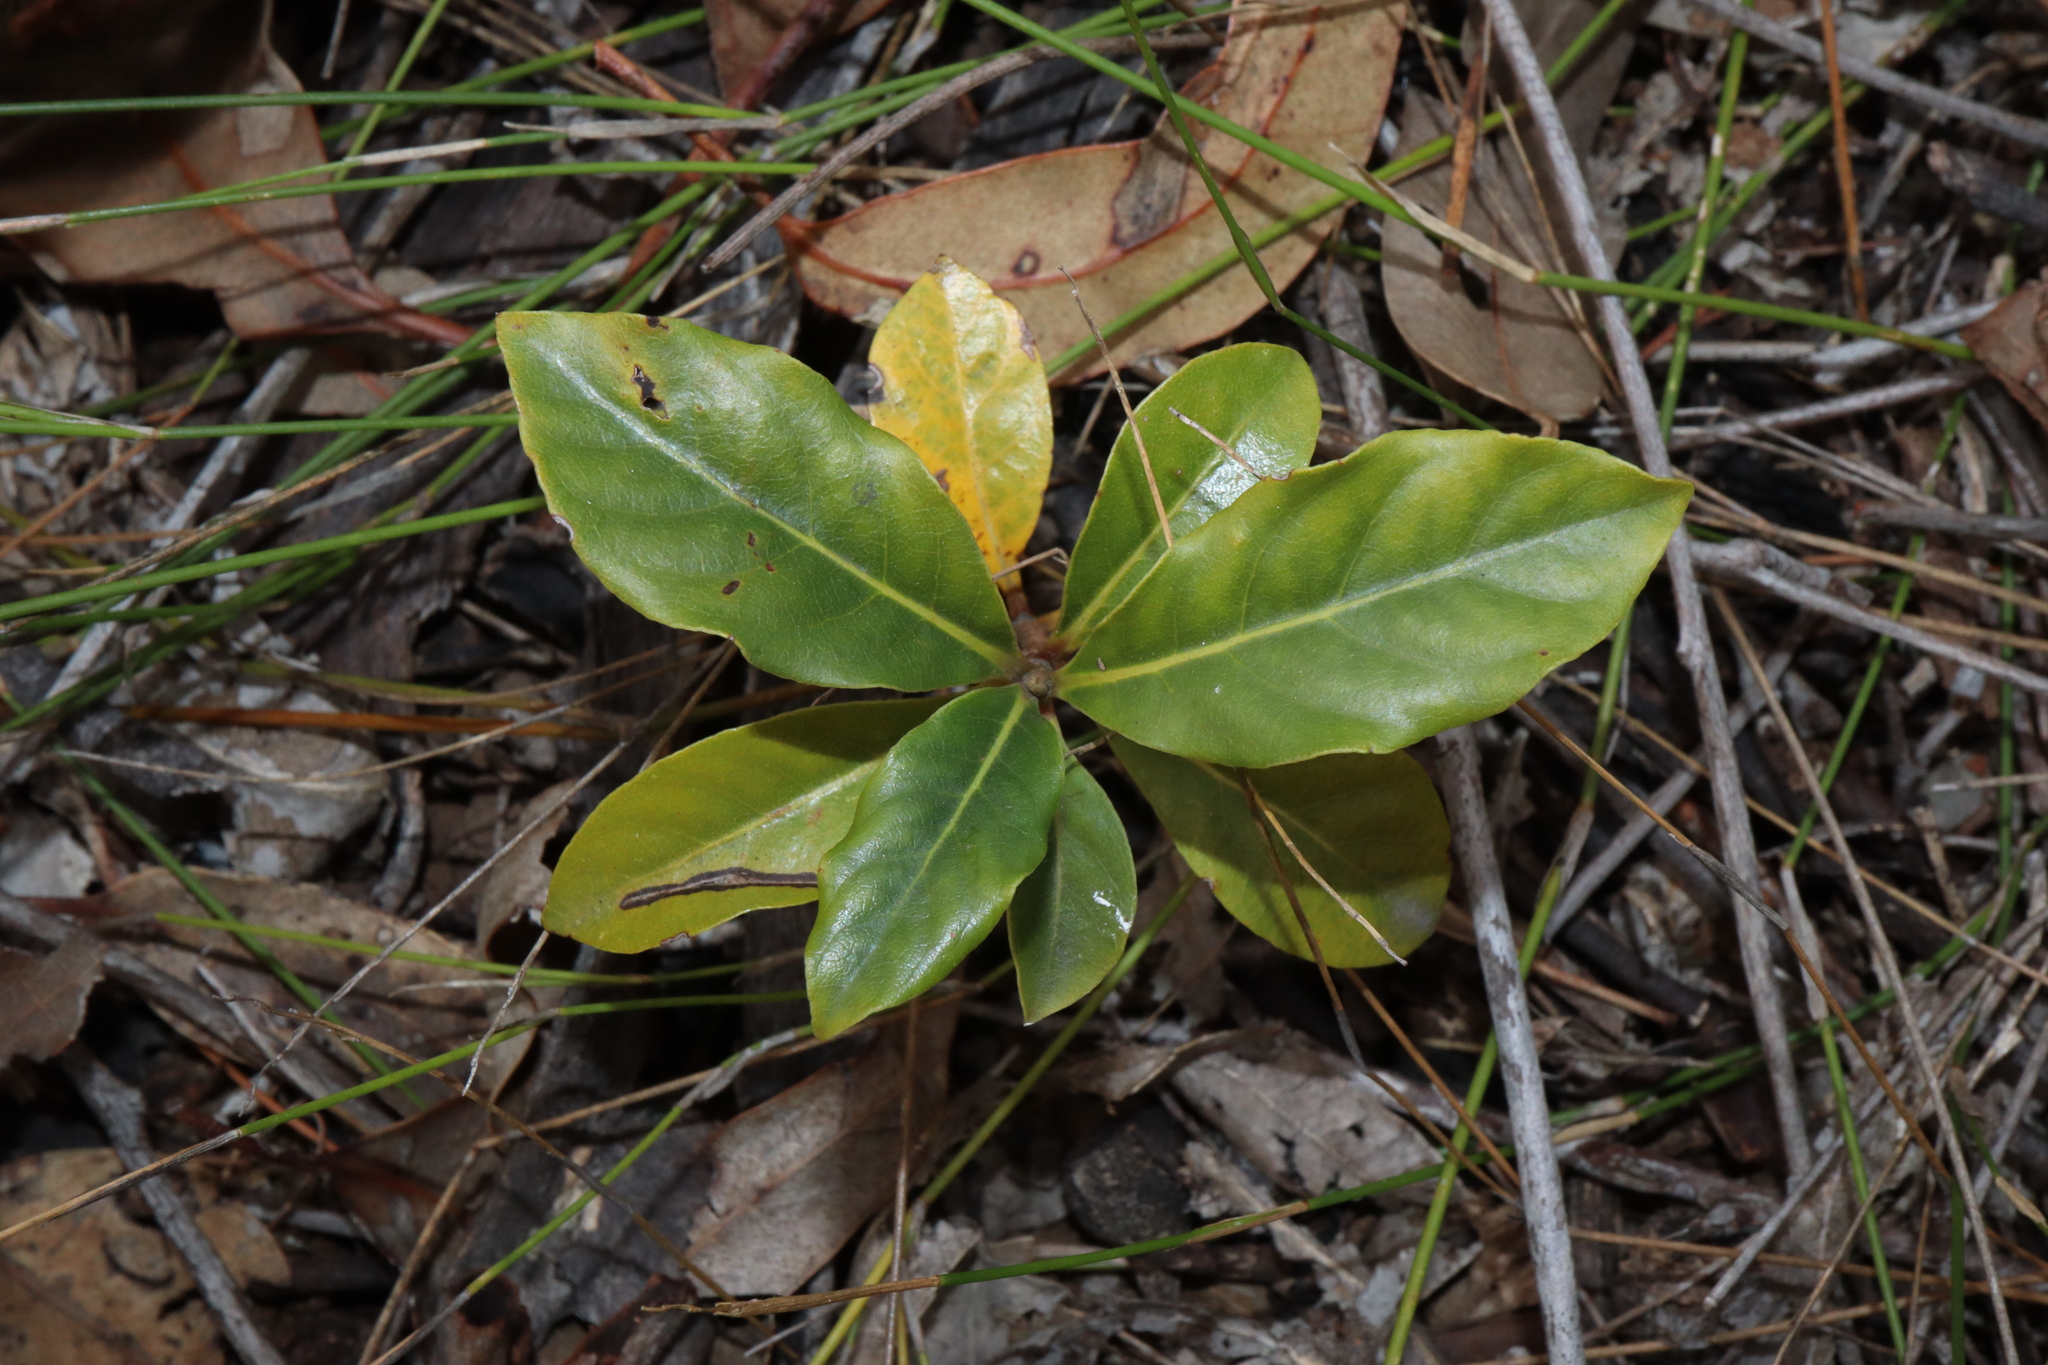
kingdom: Plantae
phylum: Tracheophyta
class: Magnoliopsida
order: Apiales
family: Pittosporaceae
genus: Pittosporum
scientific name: Pittosporum revolutum
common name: Brisbane-laurel
